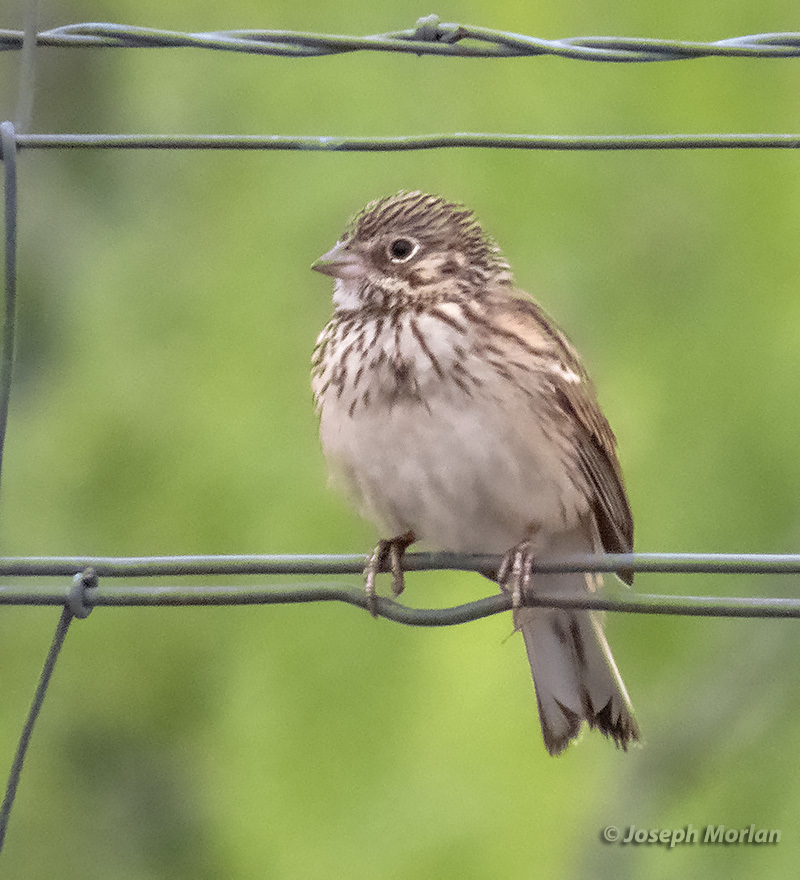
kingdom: Animalia
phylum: Chordata
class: Aves
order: Passeriformes
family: Passerellidae
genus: Pooecetes
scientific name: Pooecetes gramineus
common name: Vesper sparrow
